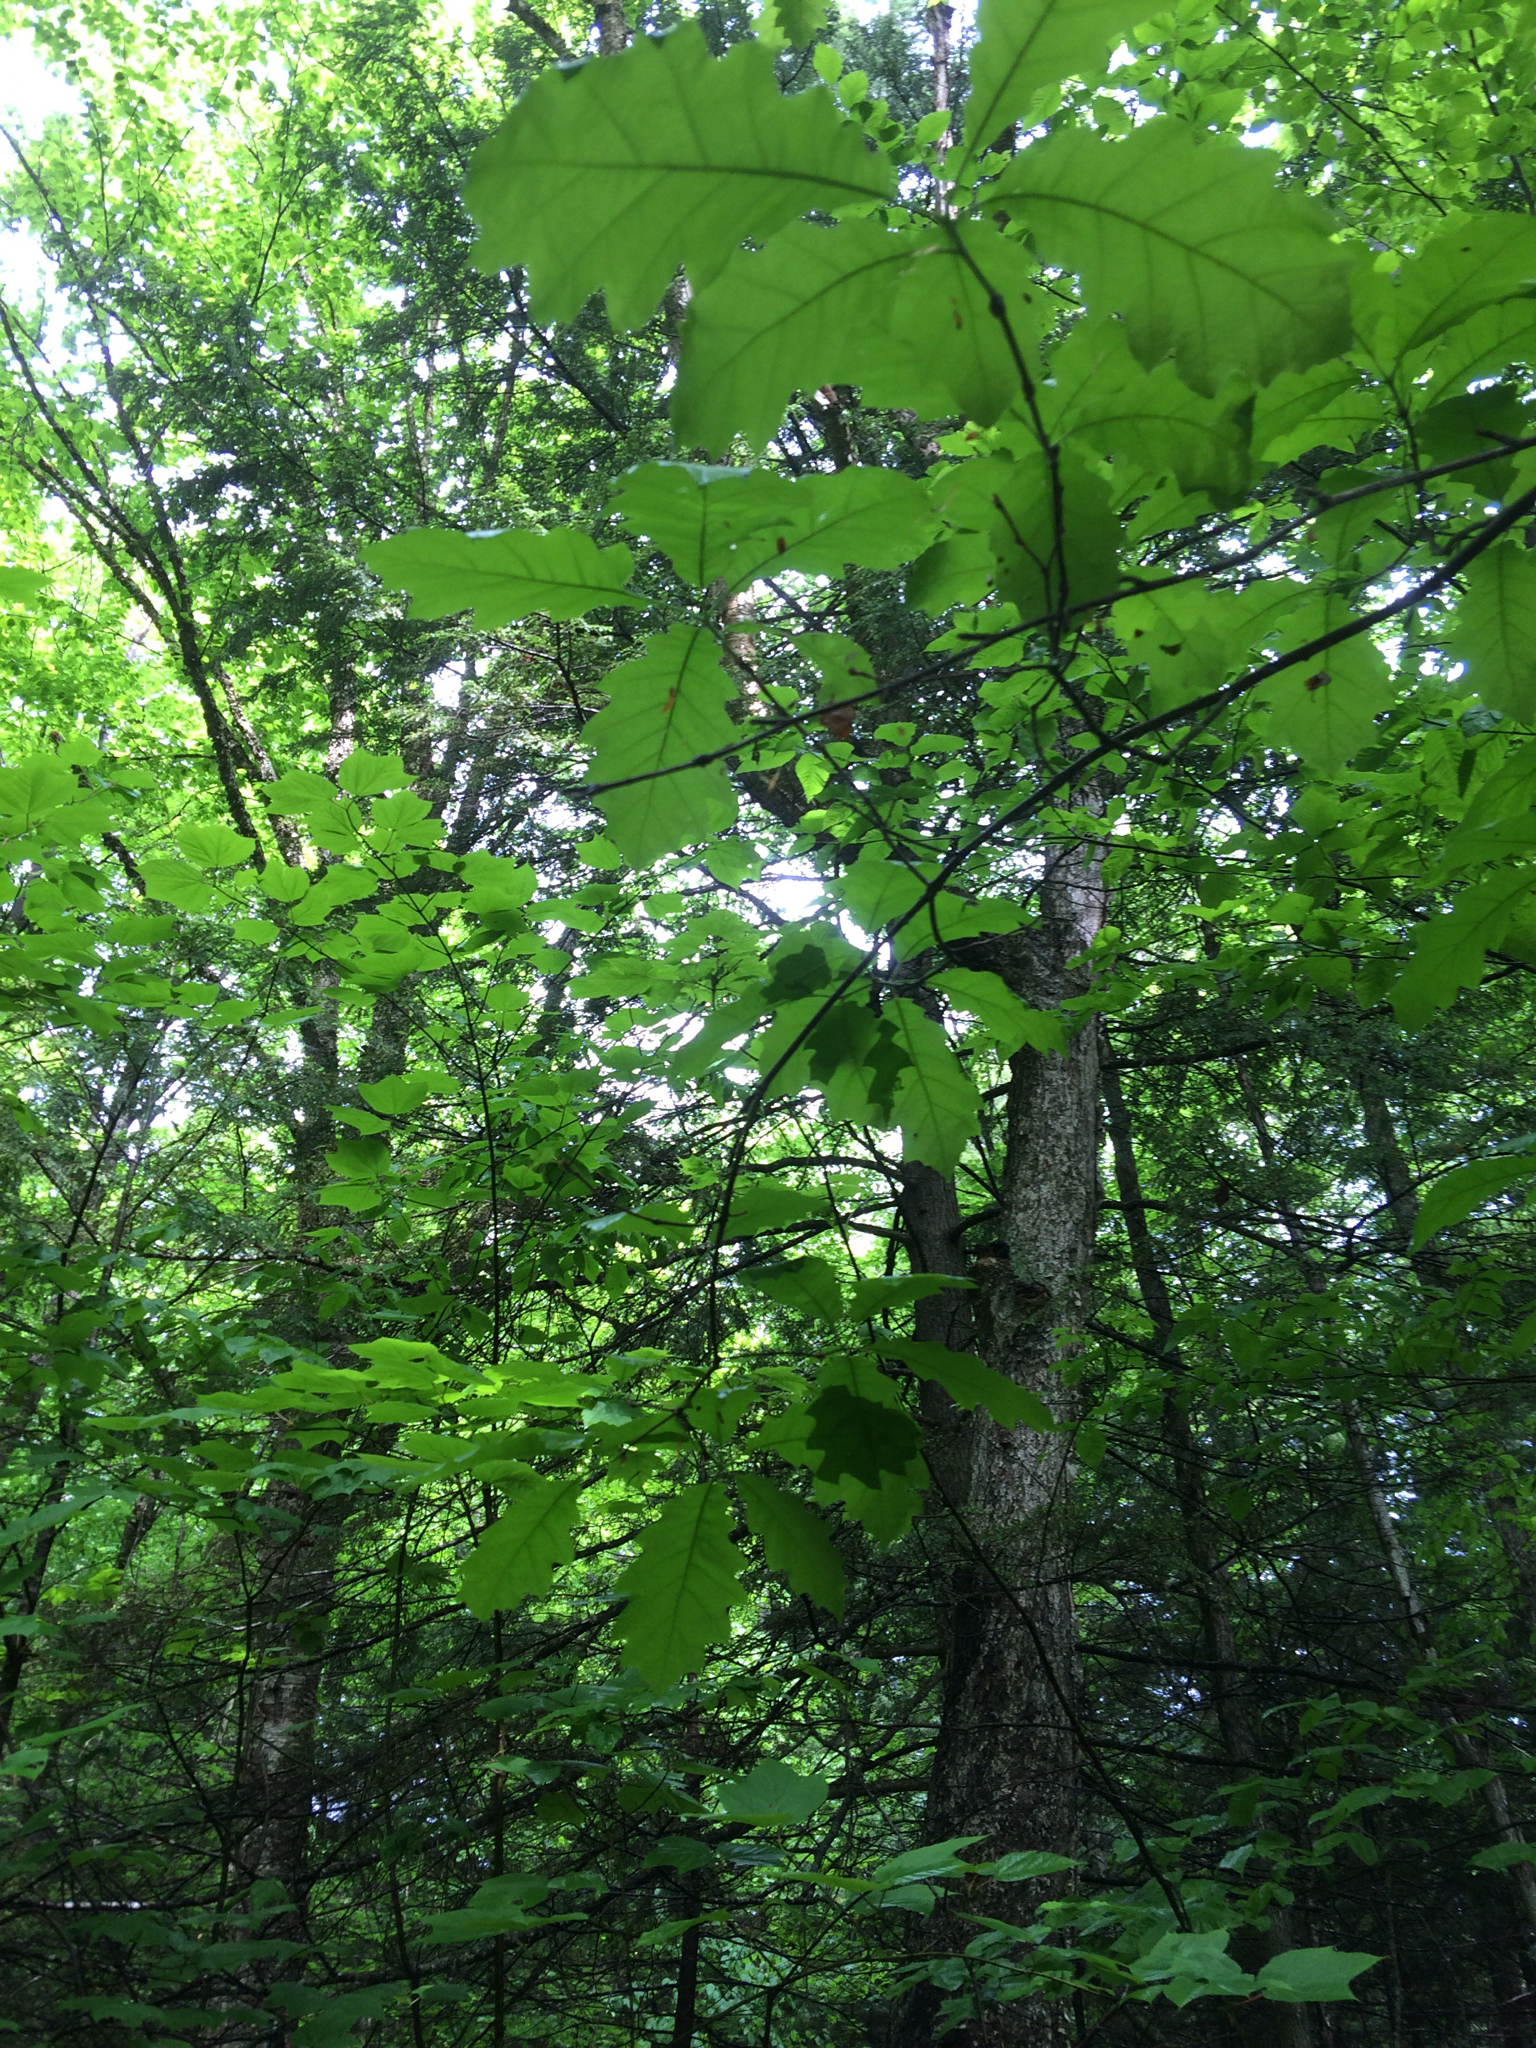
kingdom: Plantae
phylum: Tracheophyta
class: Magnoliopsida
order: Fagales
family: Fagaceae
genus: Quercus
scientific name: Quercus rubra
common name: Red oak
